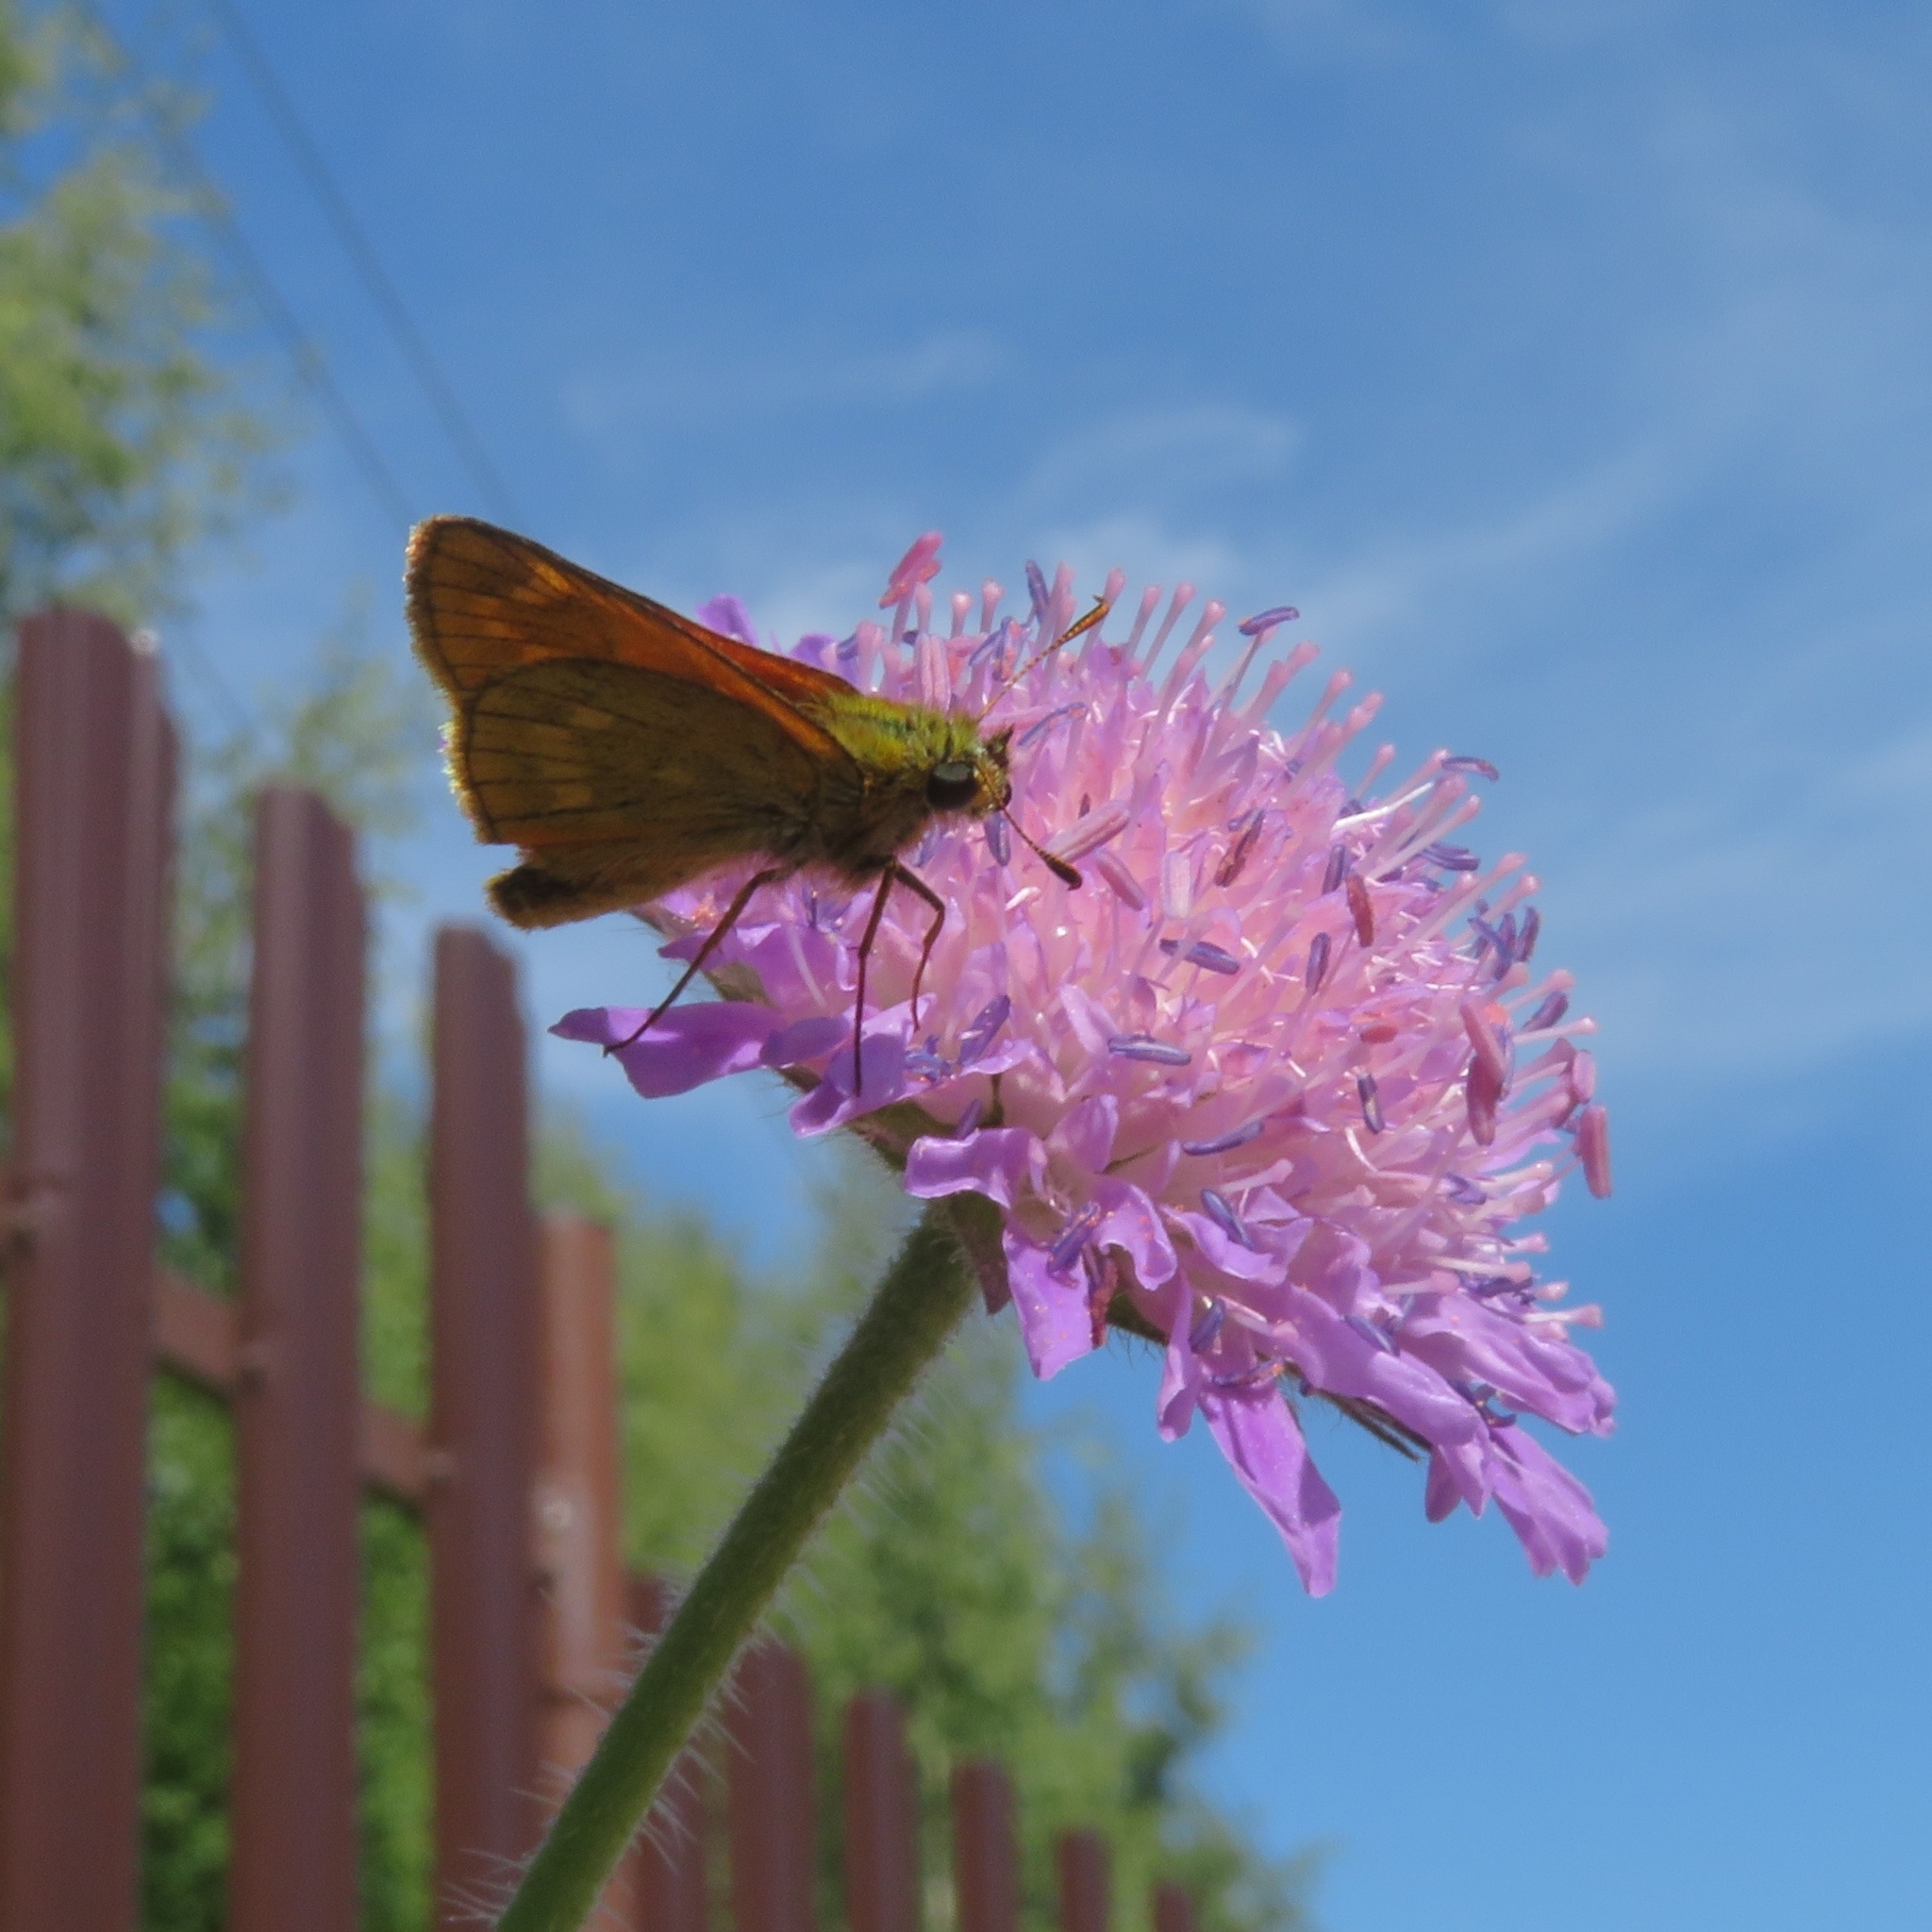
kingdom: Animalia
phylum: Arthropoda
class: Insecta
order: Lepidoptera
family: Hesperiidae
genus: Ochlodes
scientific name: Ochlodes venata
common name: Large skipper
